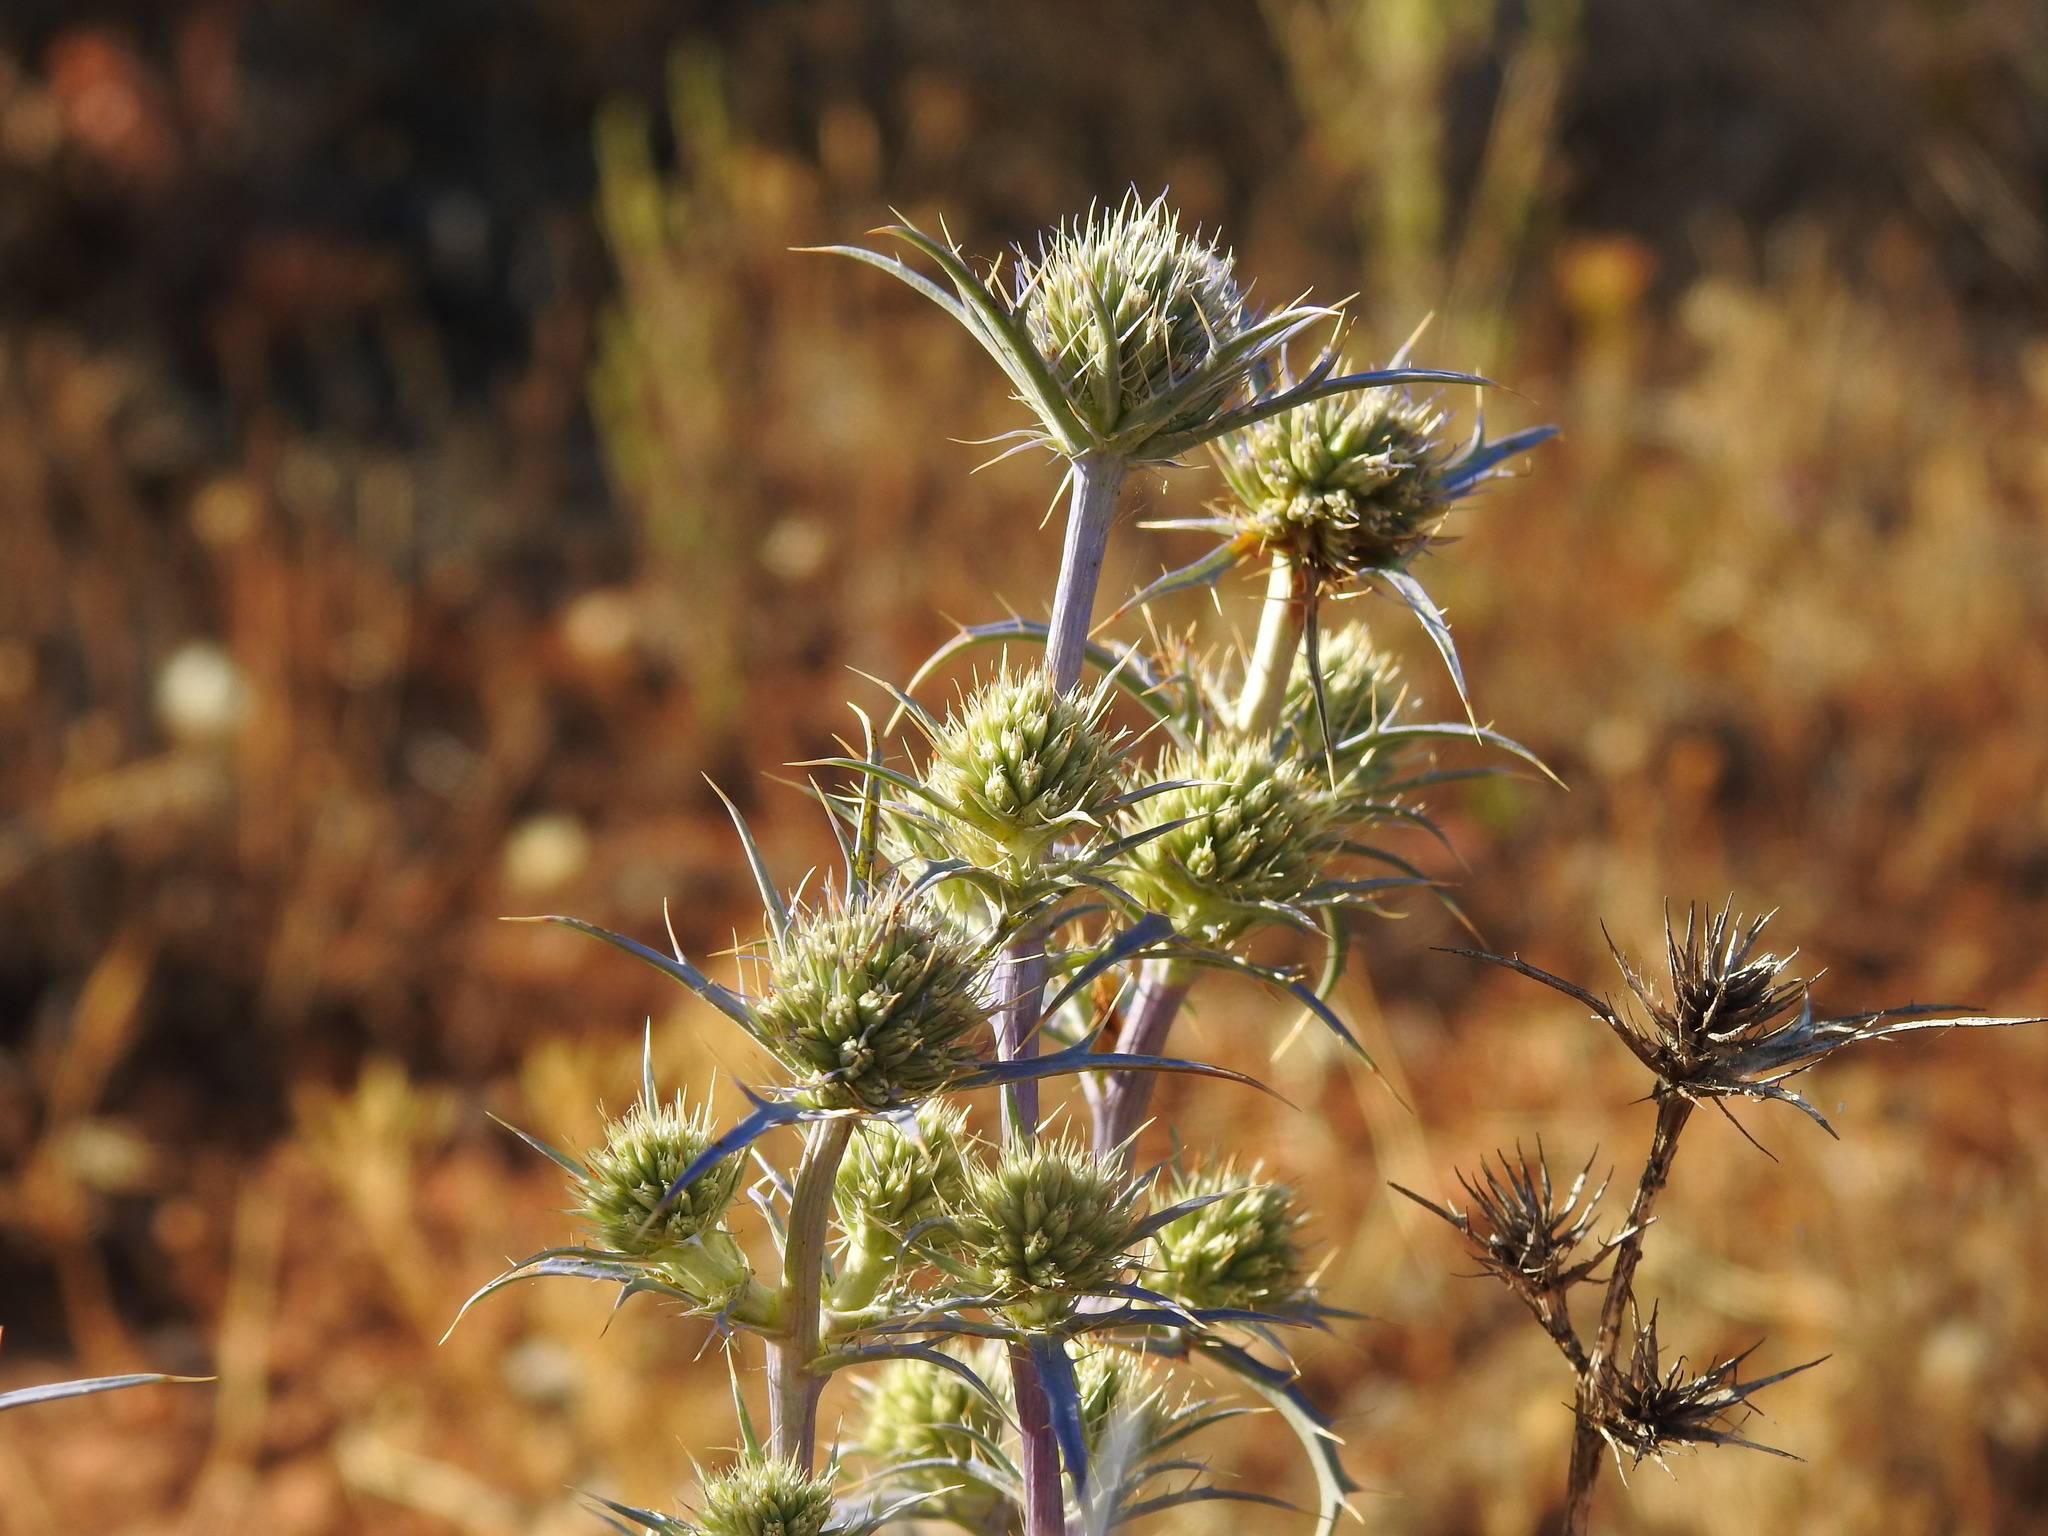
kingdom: Plantae
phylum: Tracheophyta
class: Magnoliopsida
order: Apiales
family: Apiaceae
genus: Eryngium
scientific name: Eryngium dilatatum
